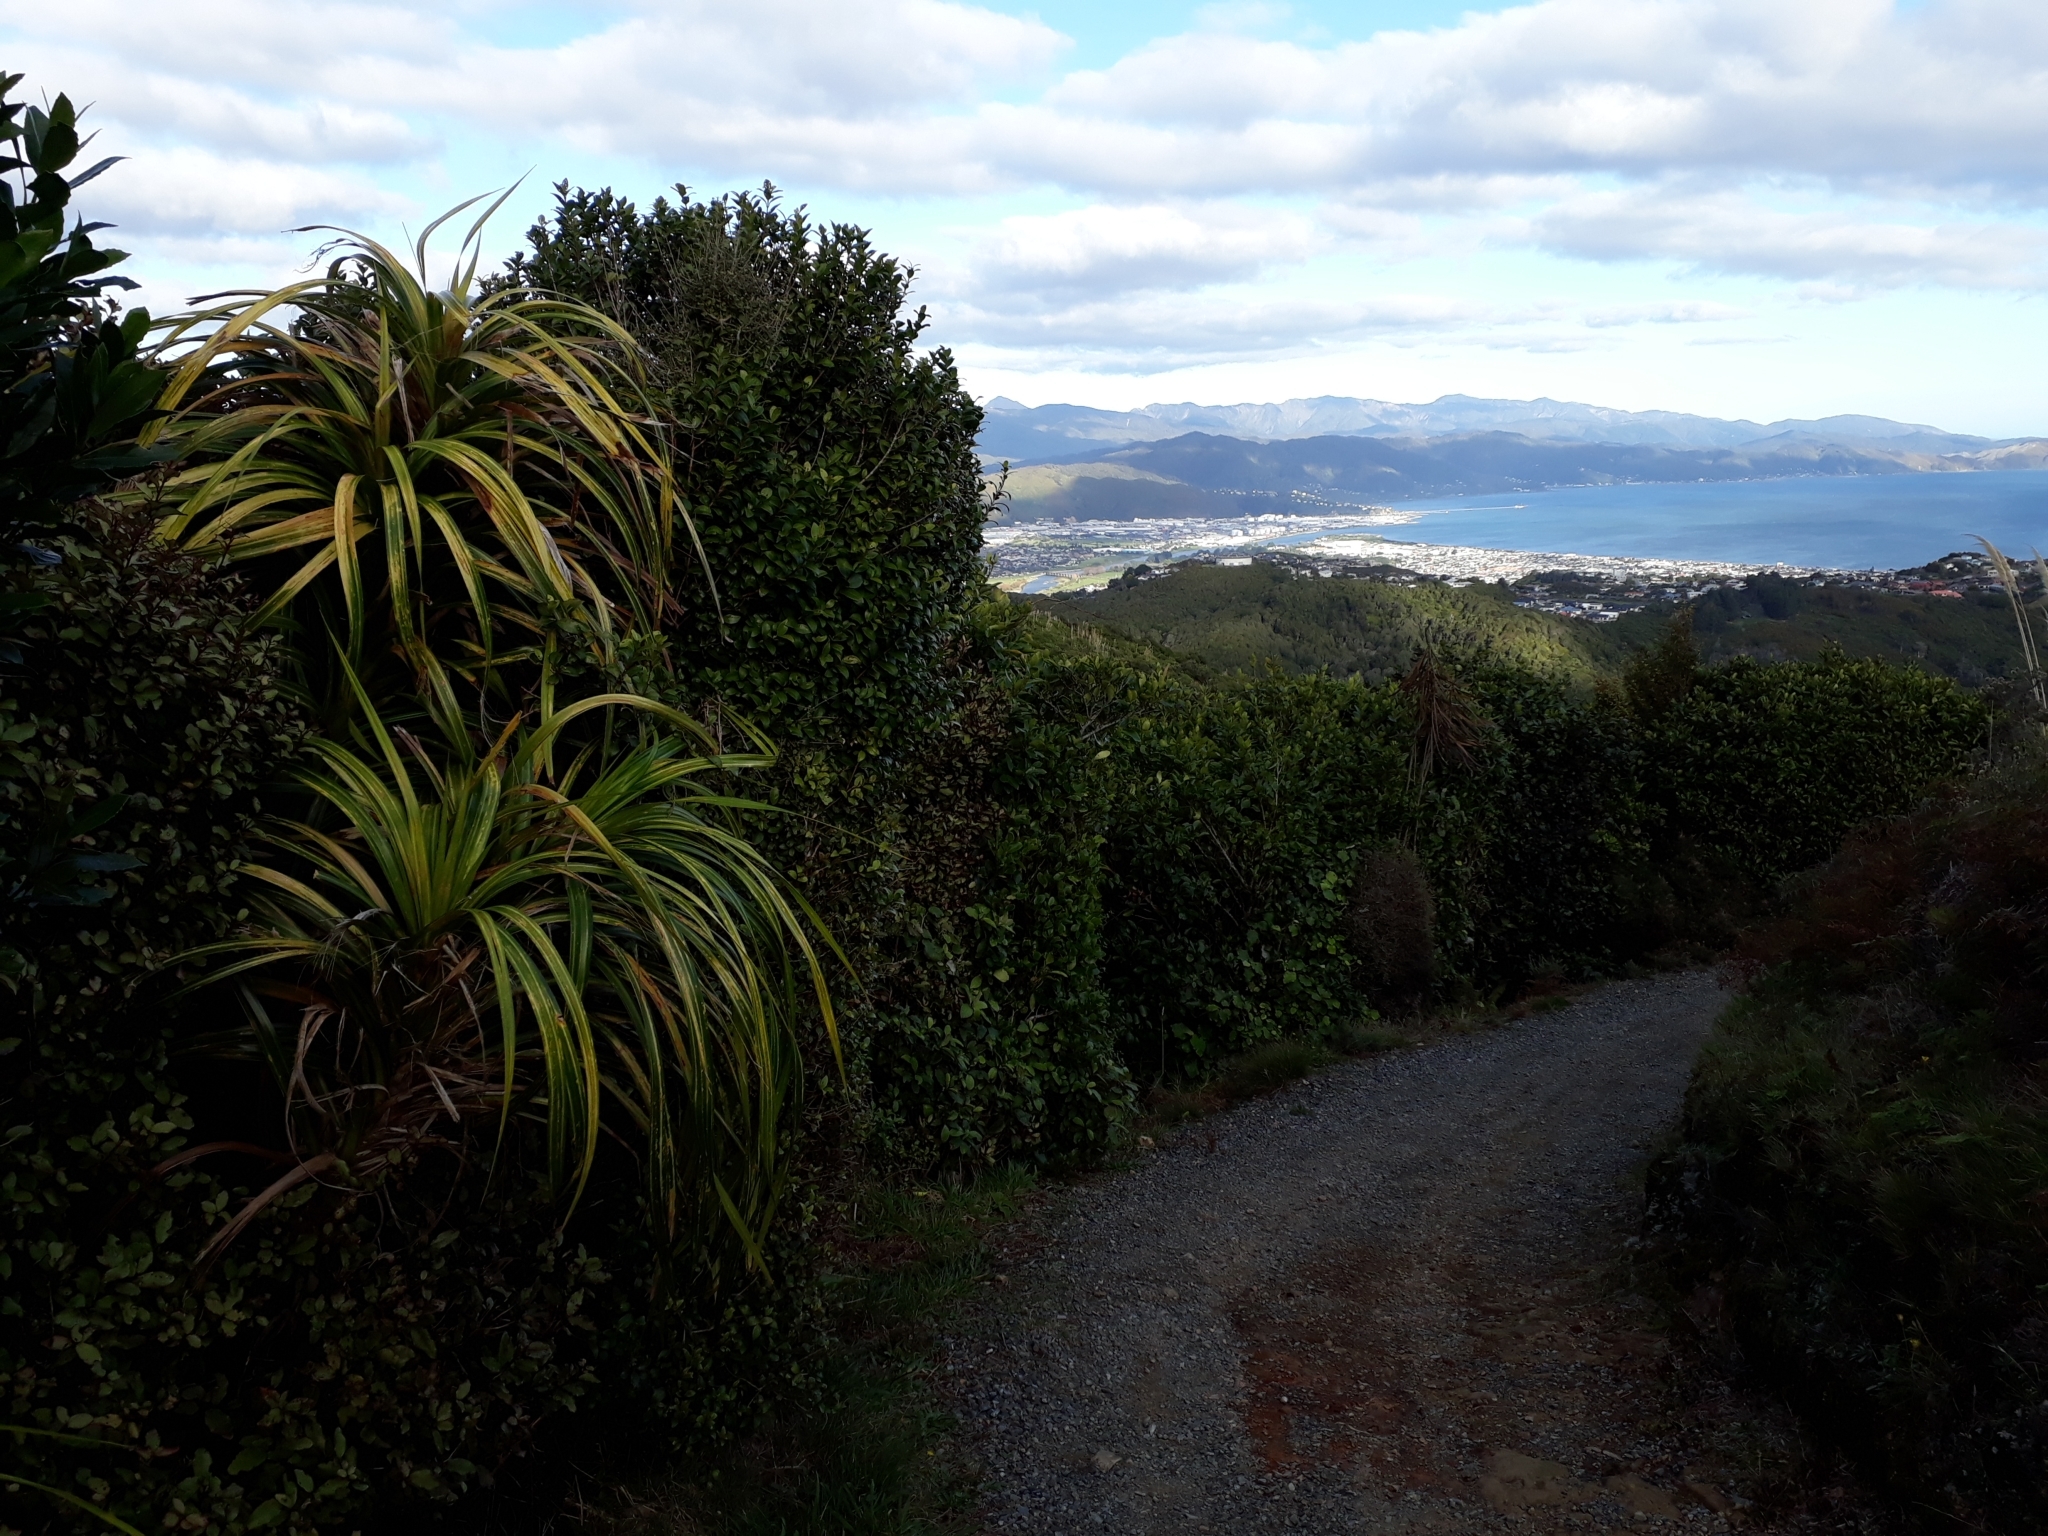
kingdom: Plantae
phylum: Tracheophyta
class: Liliopsida
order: Pandanales
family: Pandanaceae
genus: Freycinetia
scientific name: Freycinetia banksii
